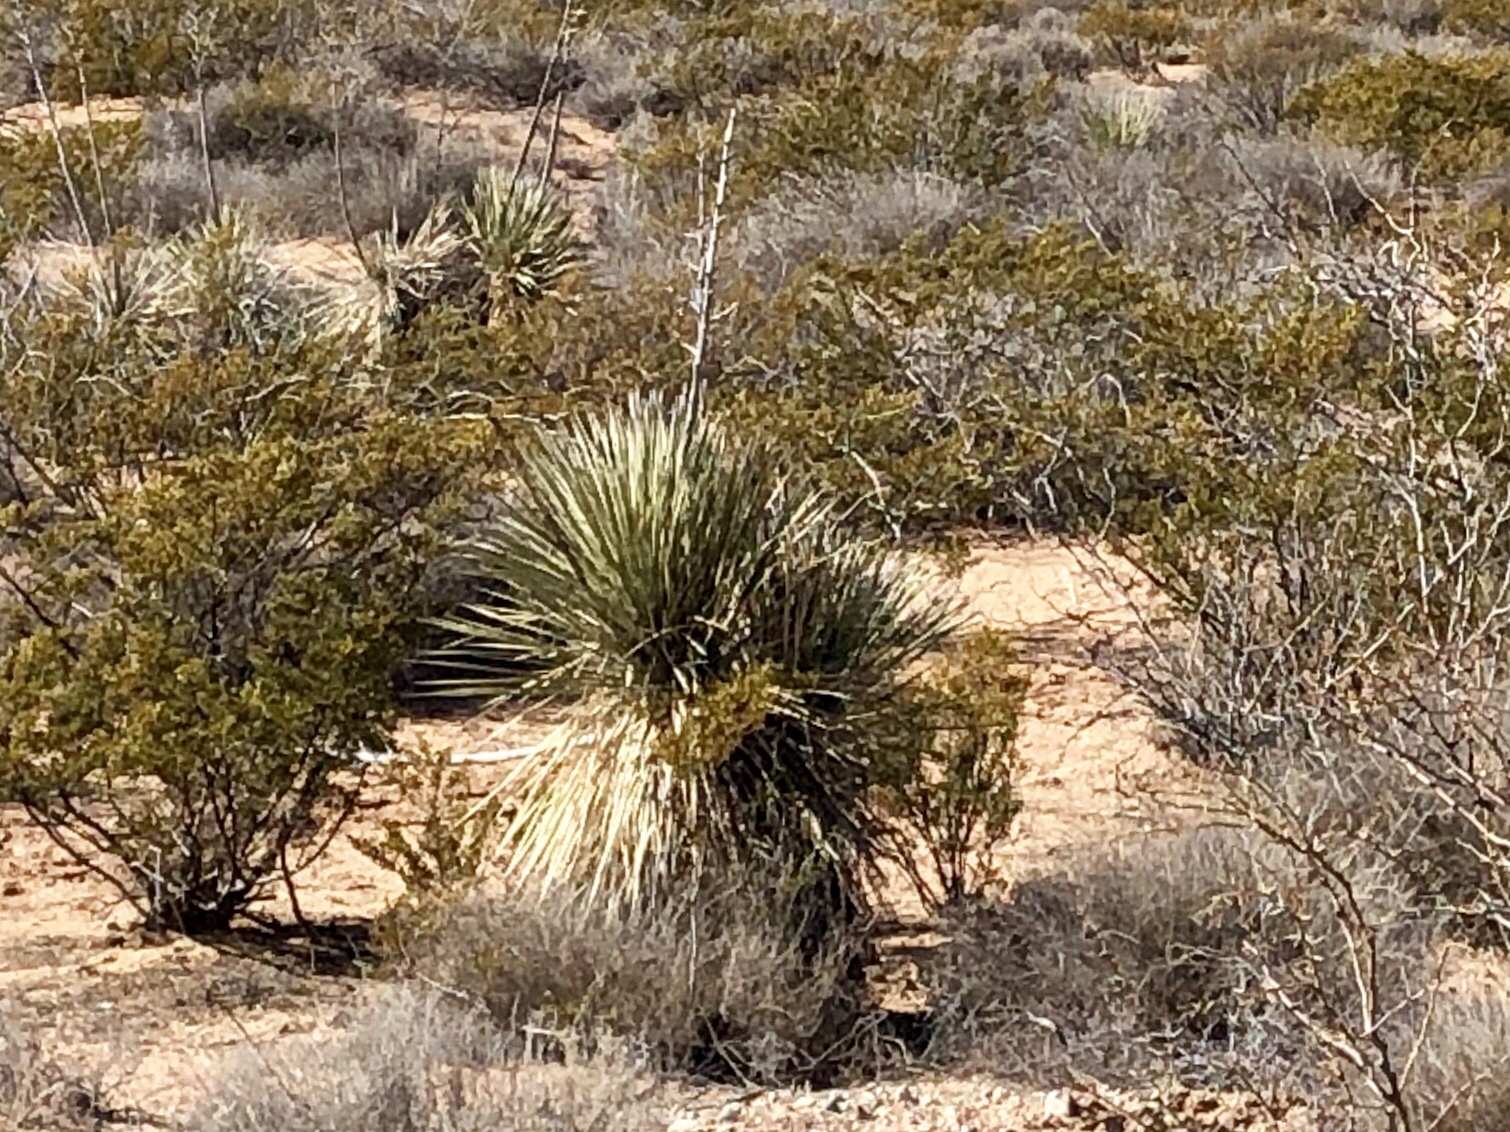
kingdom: Plantae
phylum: Tracheophyta
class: Liliopsida
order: Asparagales
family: Asparagaceae
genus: Yucca
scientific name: Yucca elata
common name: Palmella
